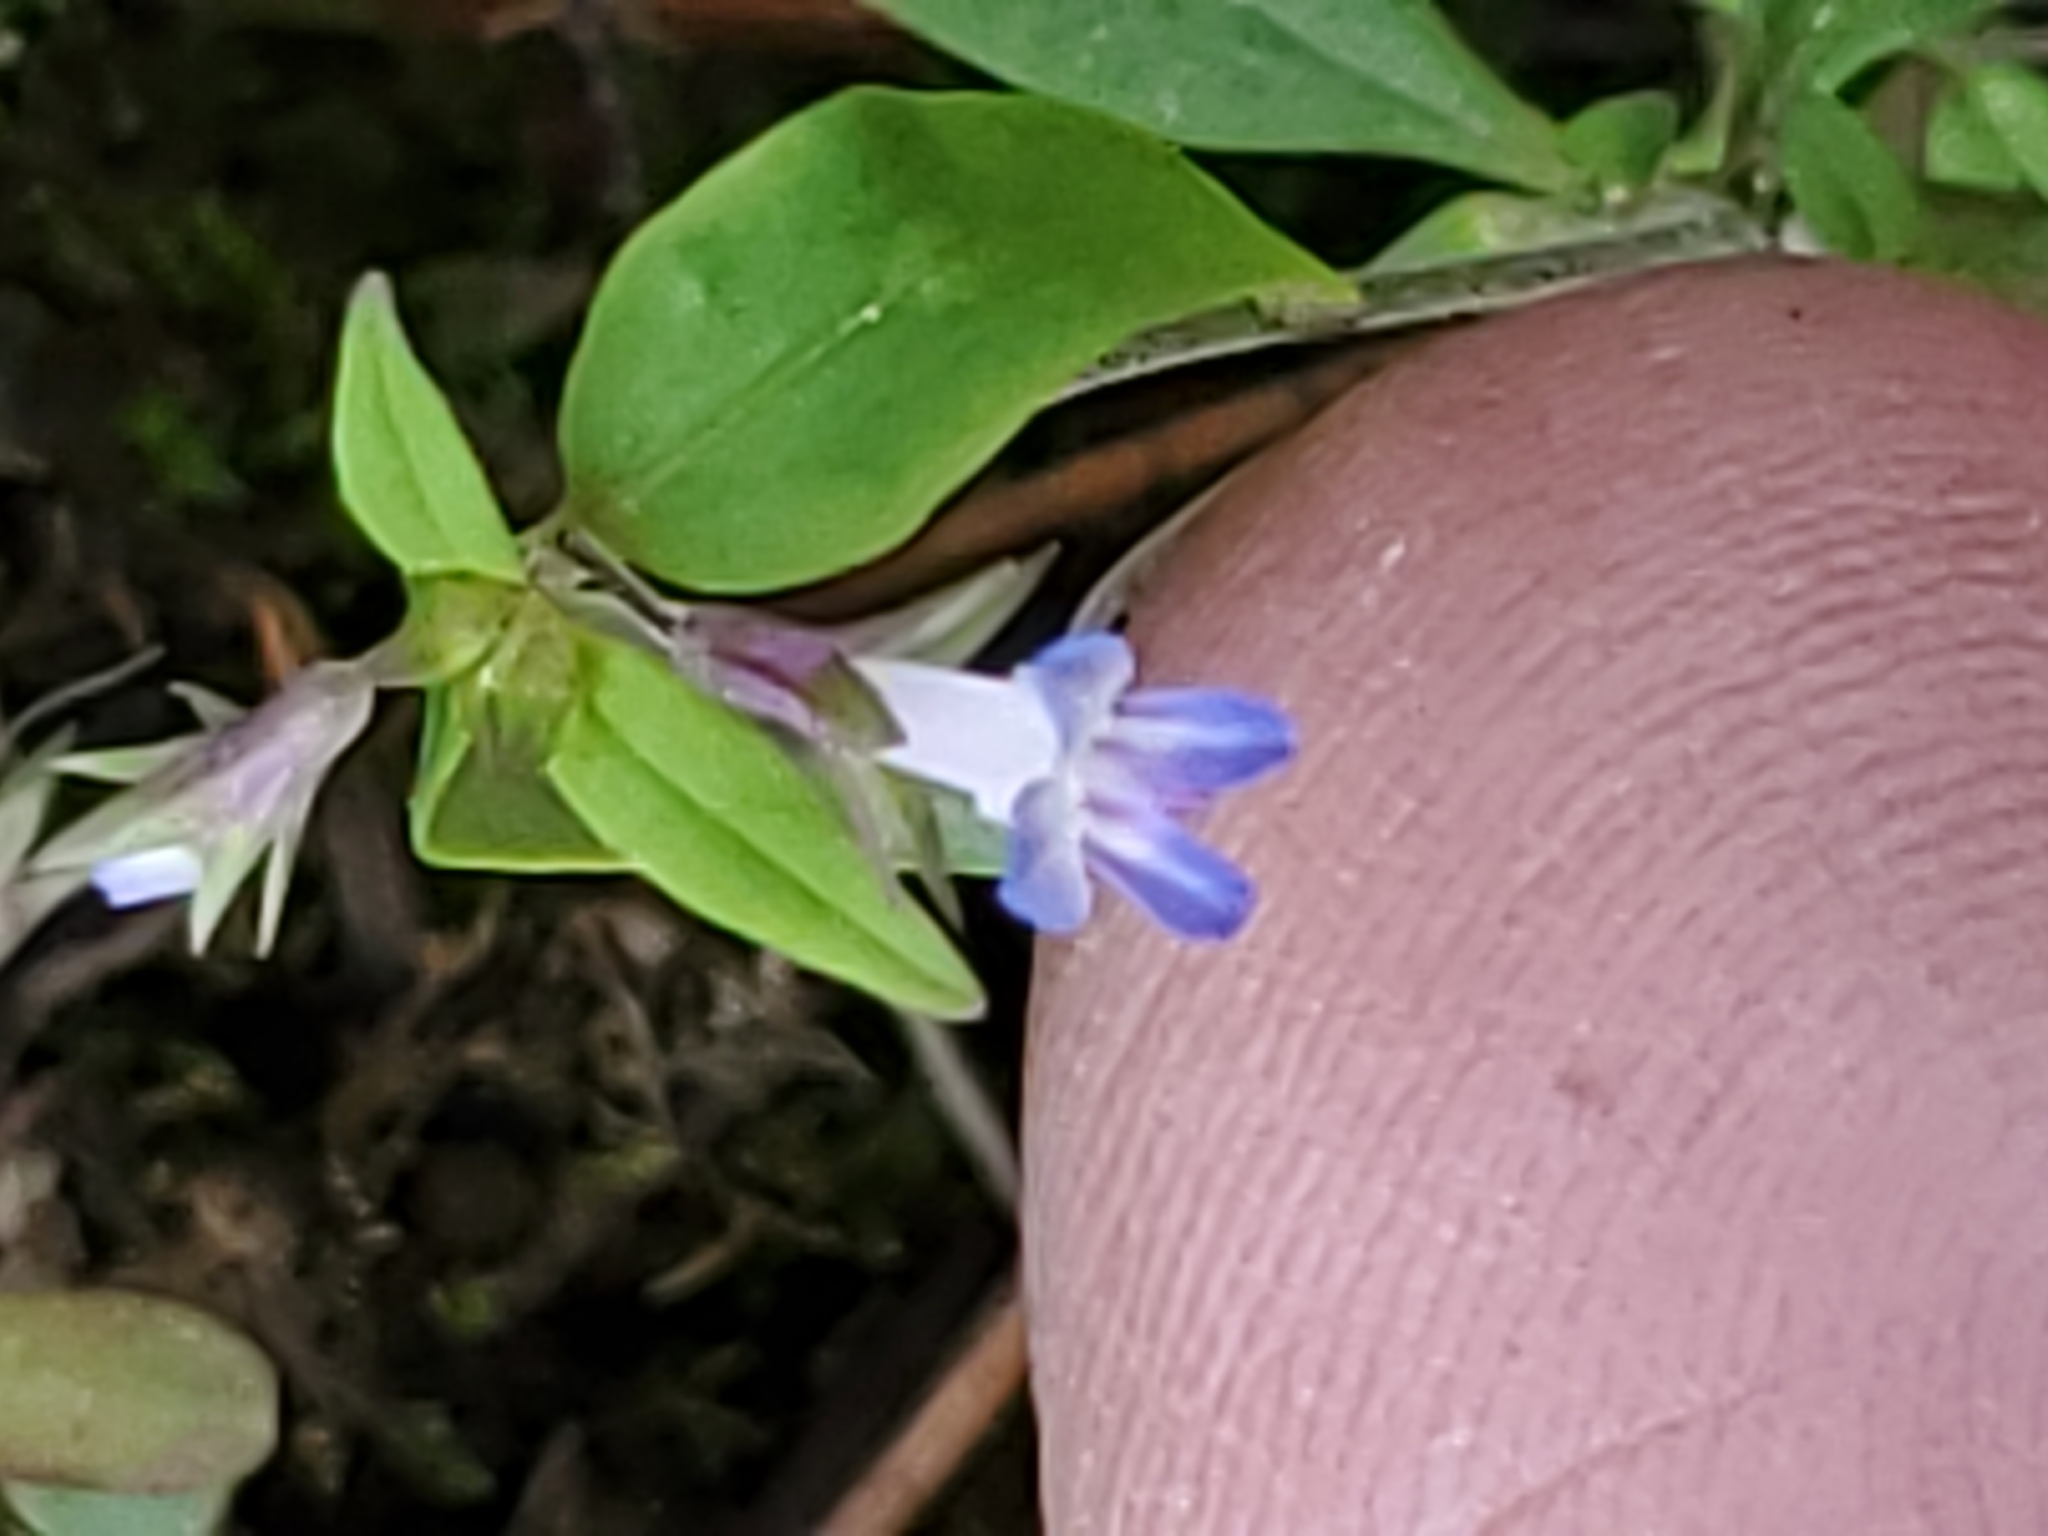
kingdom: Plantae
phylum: Tracheophyta
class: Magnoliopsida
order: Lamiales
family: Plantaginaceae
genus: Collinsia
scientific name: Collinsia parviflora
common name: Blue-lips
